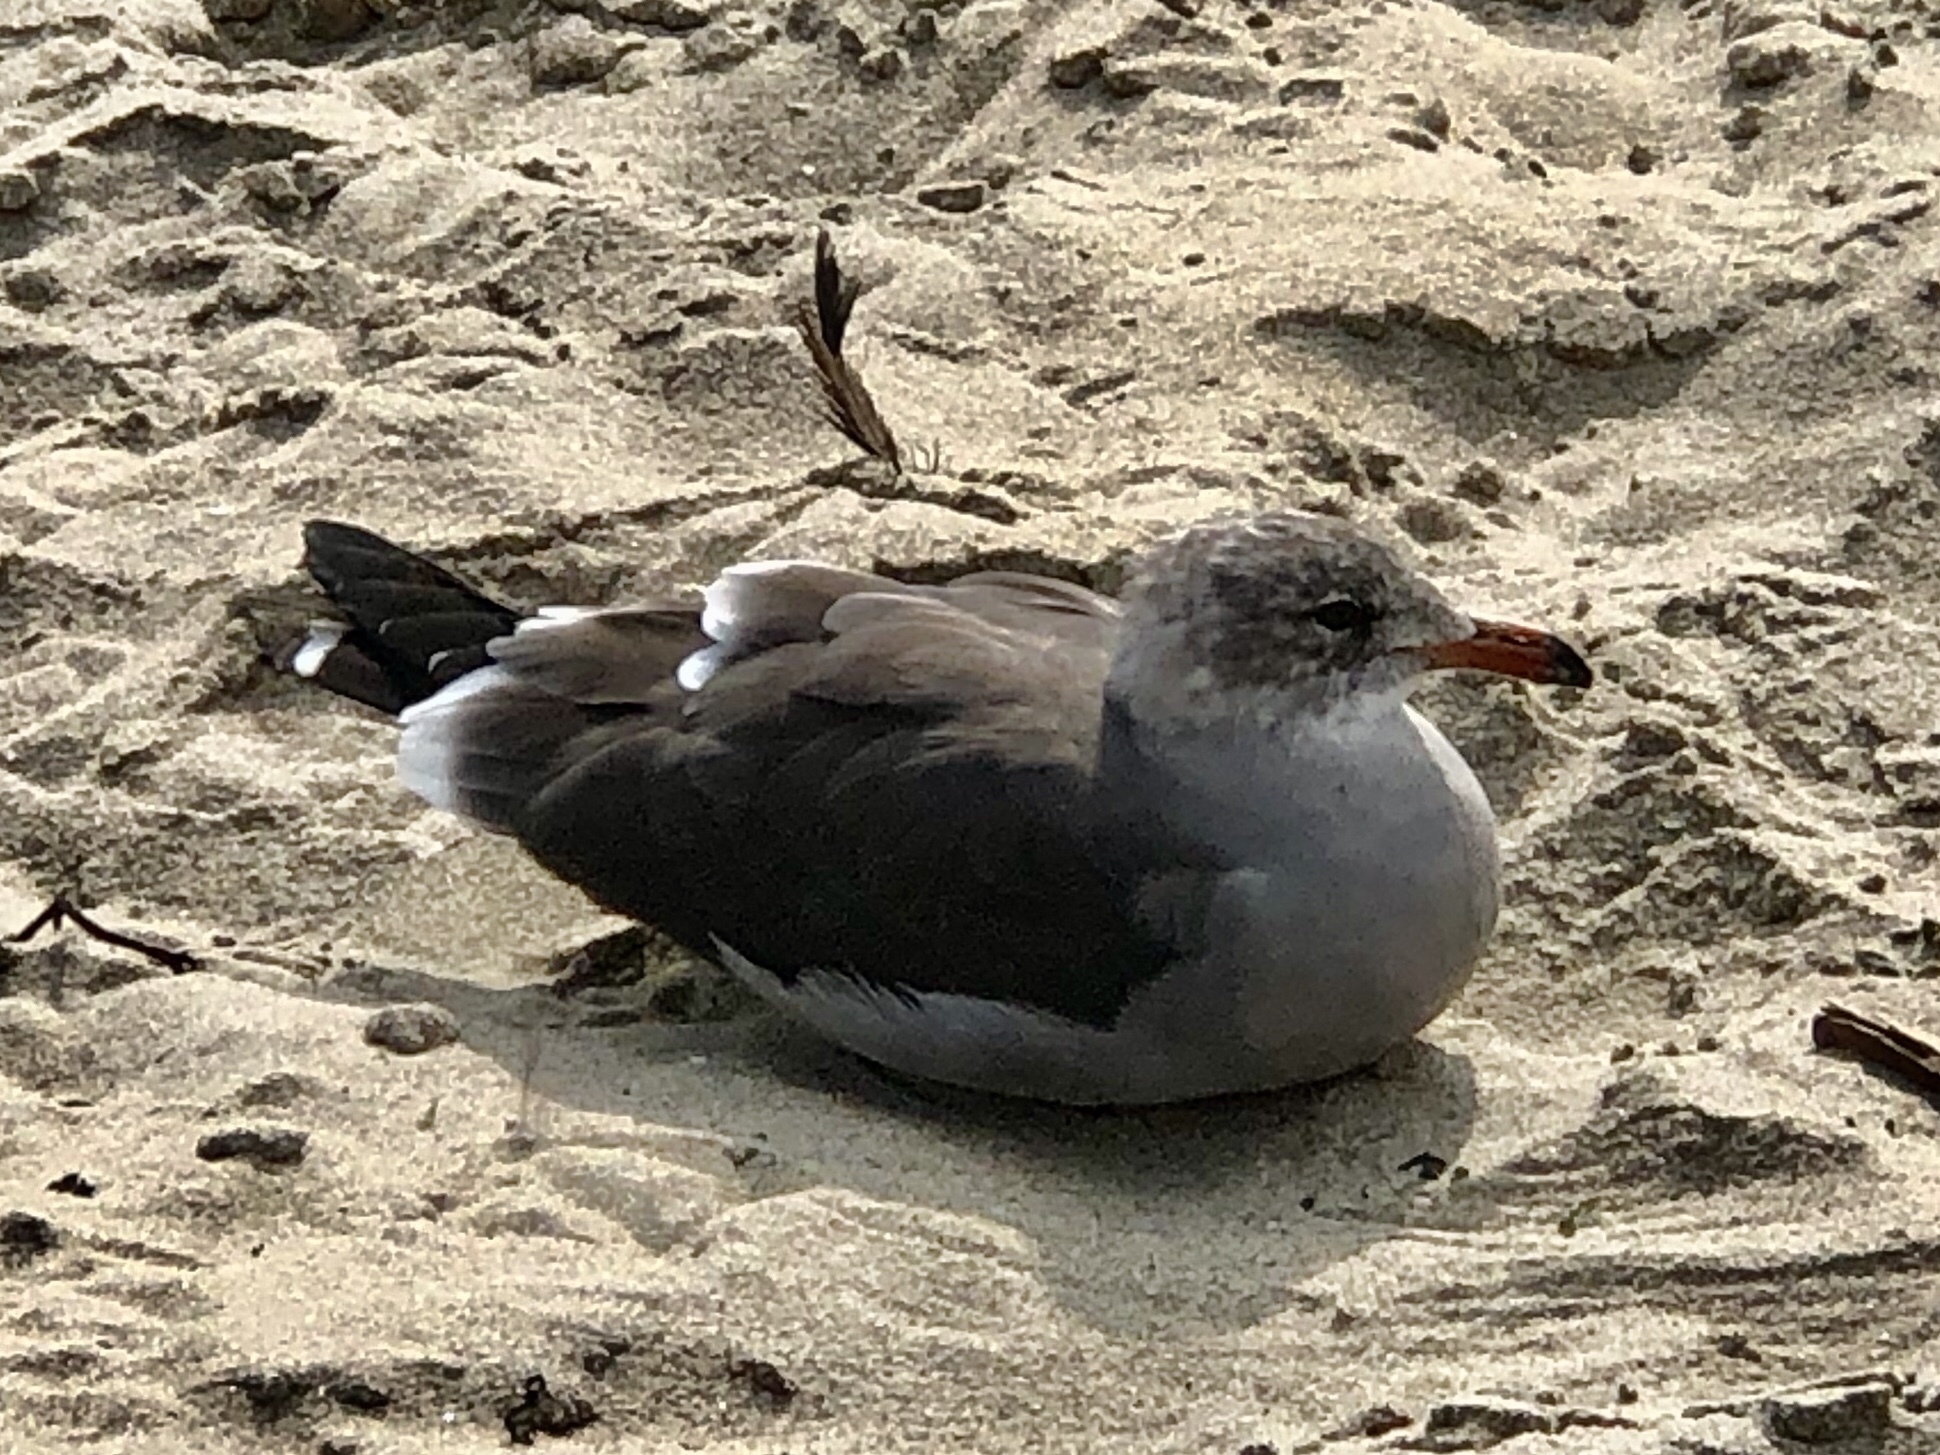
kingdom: Animalia
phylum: Chordata
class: Aves
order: Charadriiformes
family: Laridae
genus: Larus
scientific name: Larus heermanni
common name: Heermann's gull
